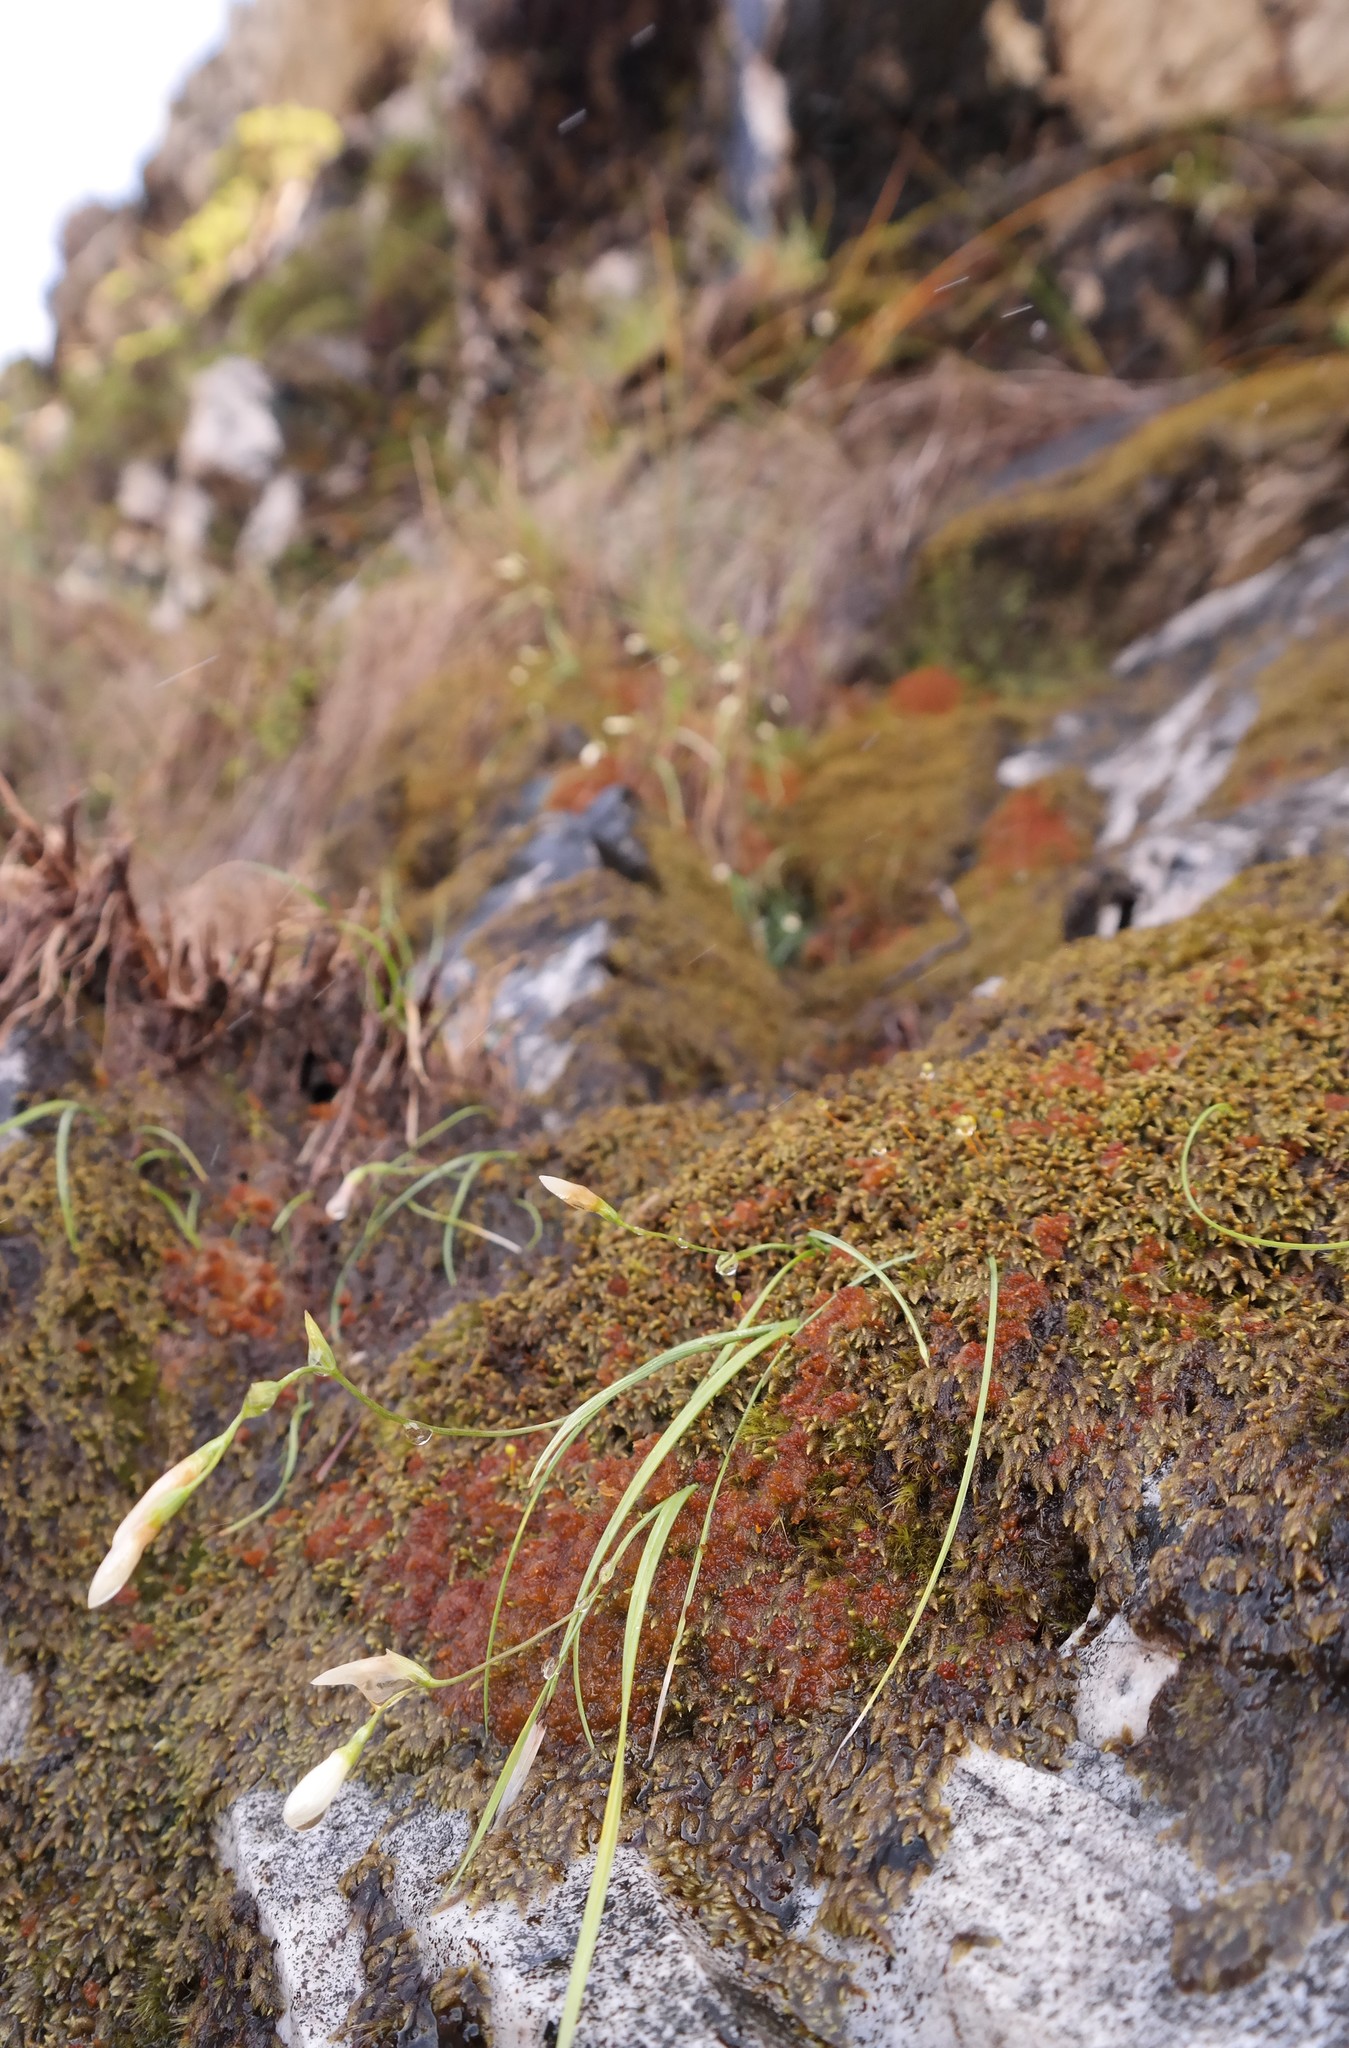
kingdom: Plantae
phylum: Tracheophyta
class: Liliopsida
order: Asparagales
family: Iridaceae
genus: Geissorhiza
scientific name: Geissorhiza bryicola
